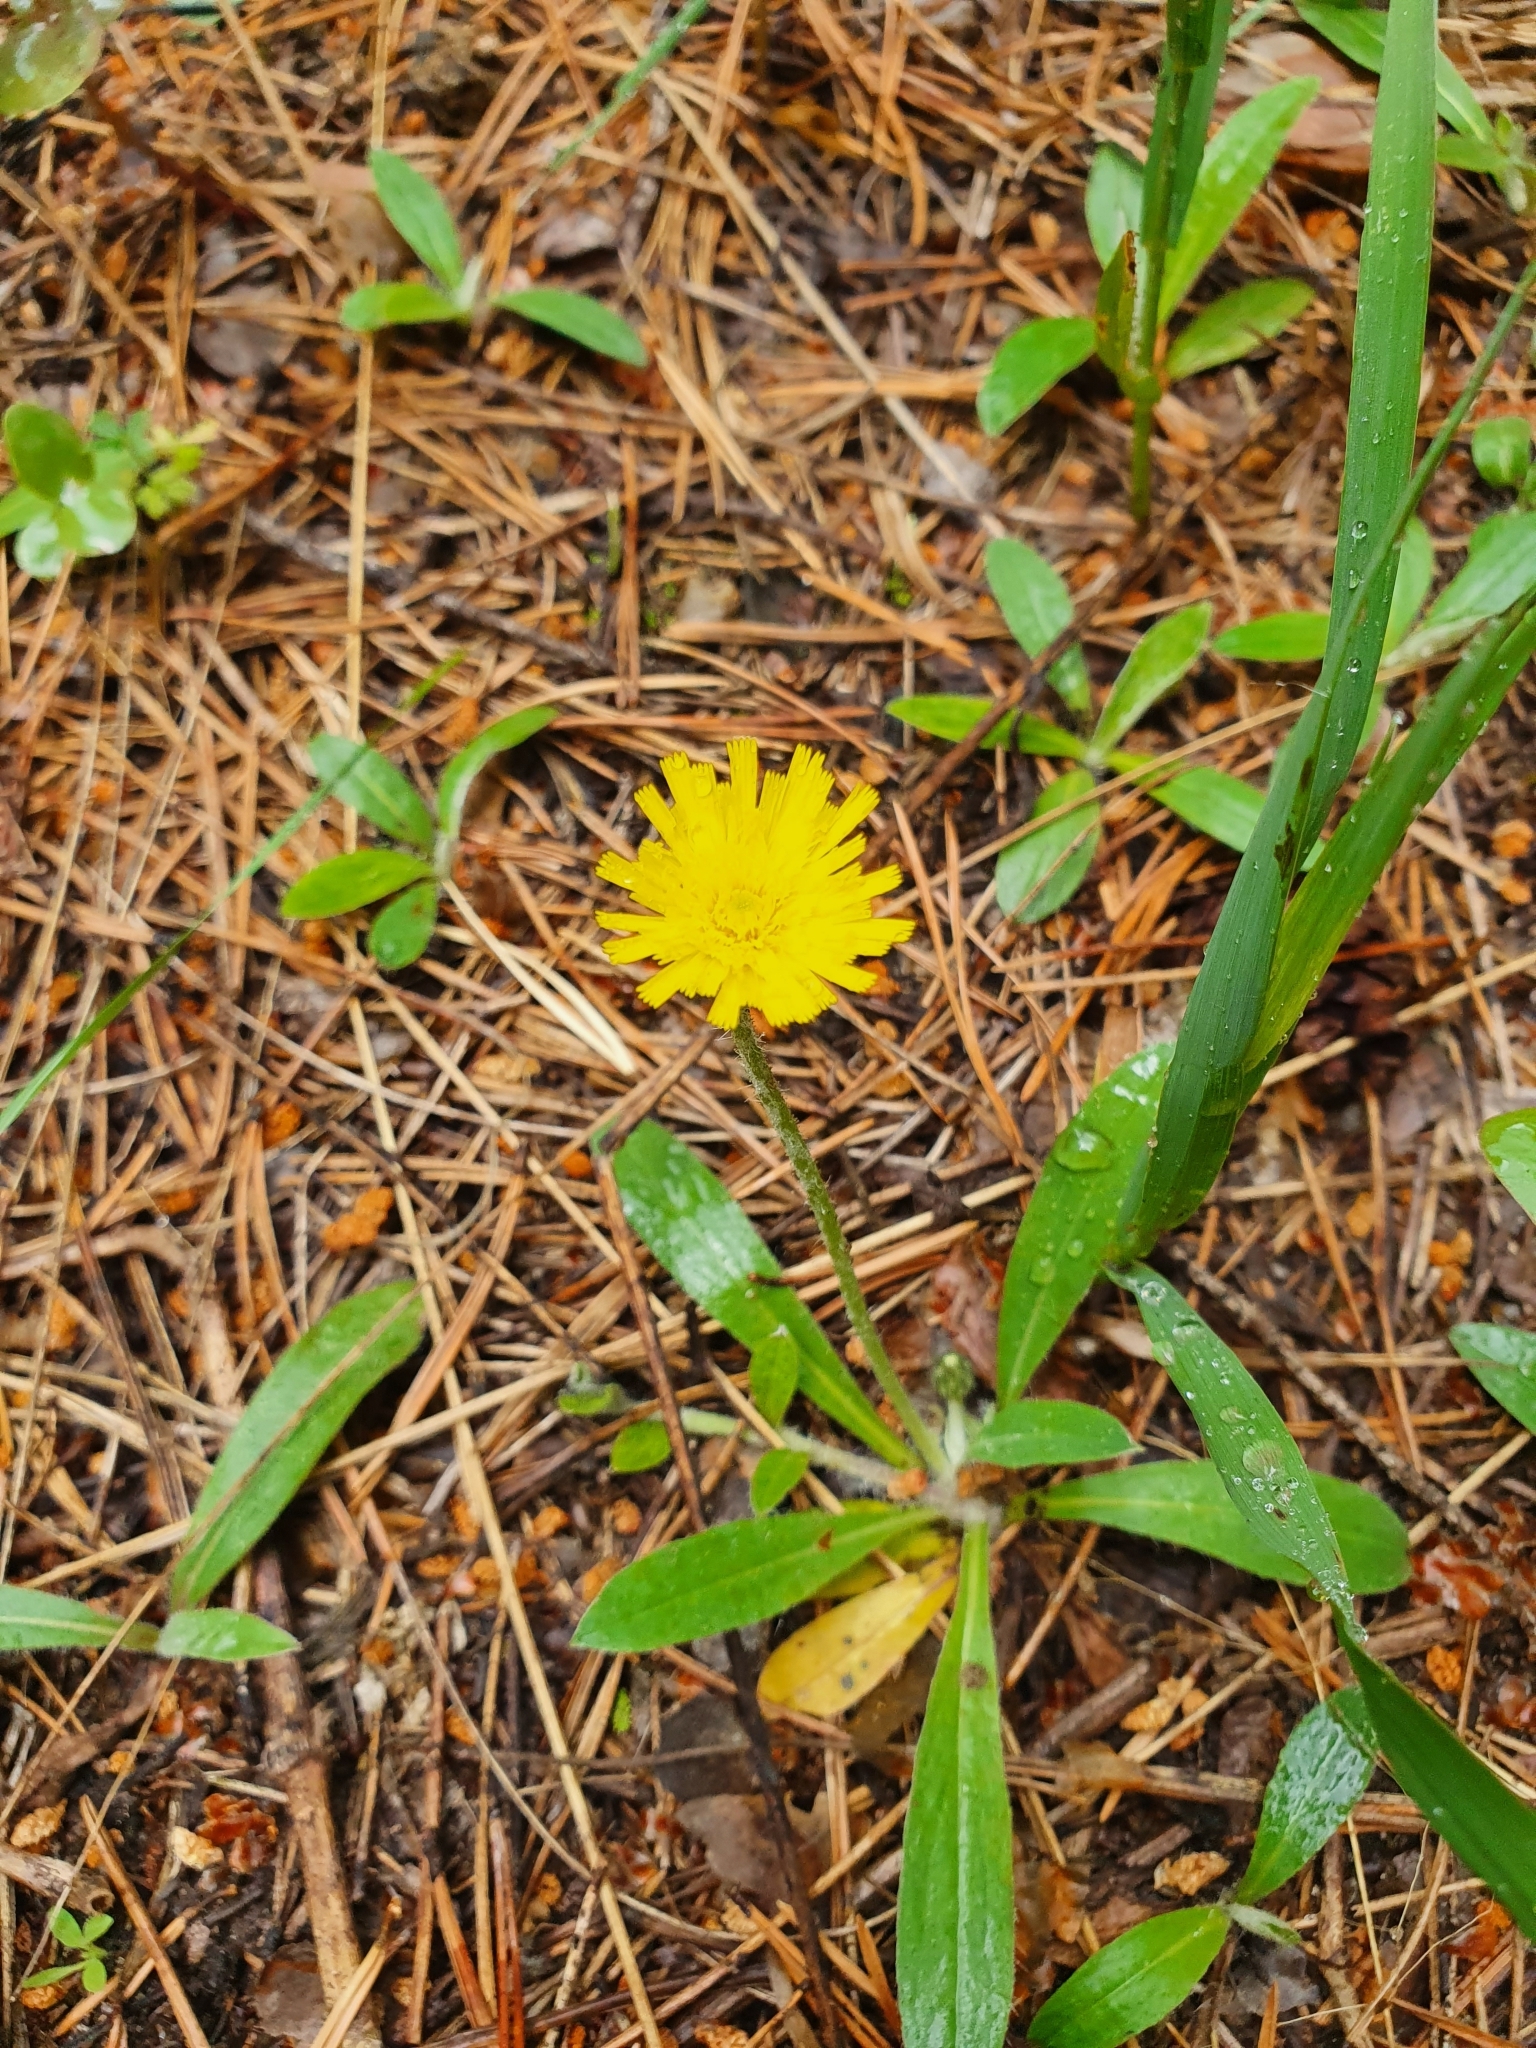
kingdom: Plantae
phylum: Tracheophyta
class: Magnoliopsida
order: Asterales
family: Asteraceae
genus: Pilosella
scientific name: Pilosella officinarum
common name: Mouse-ear hawkweed
